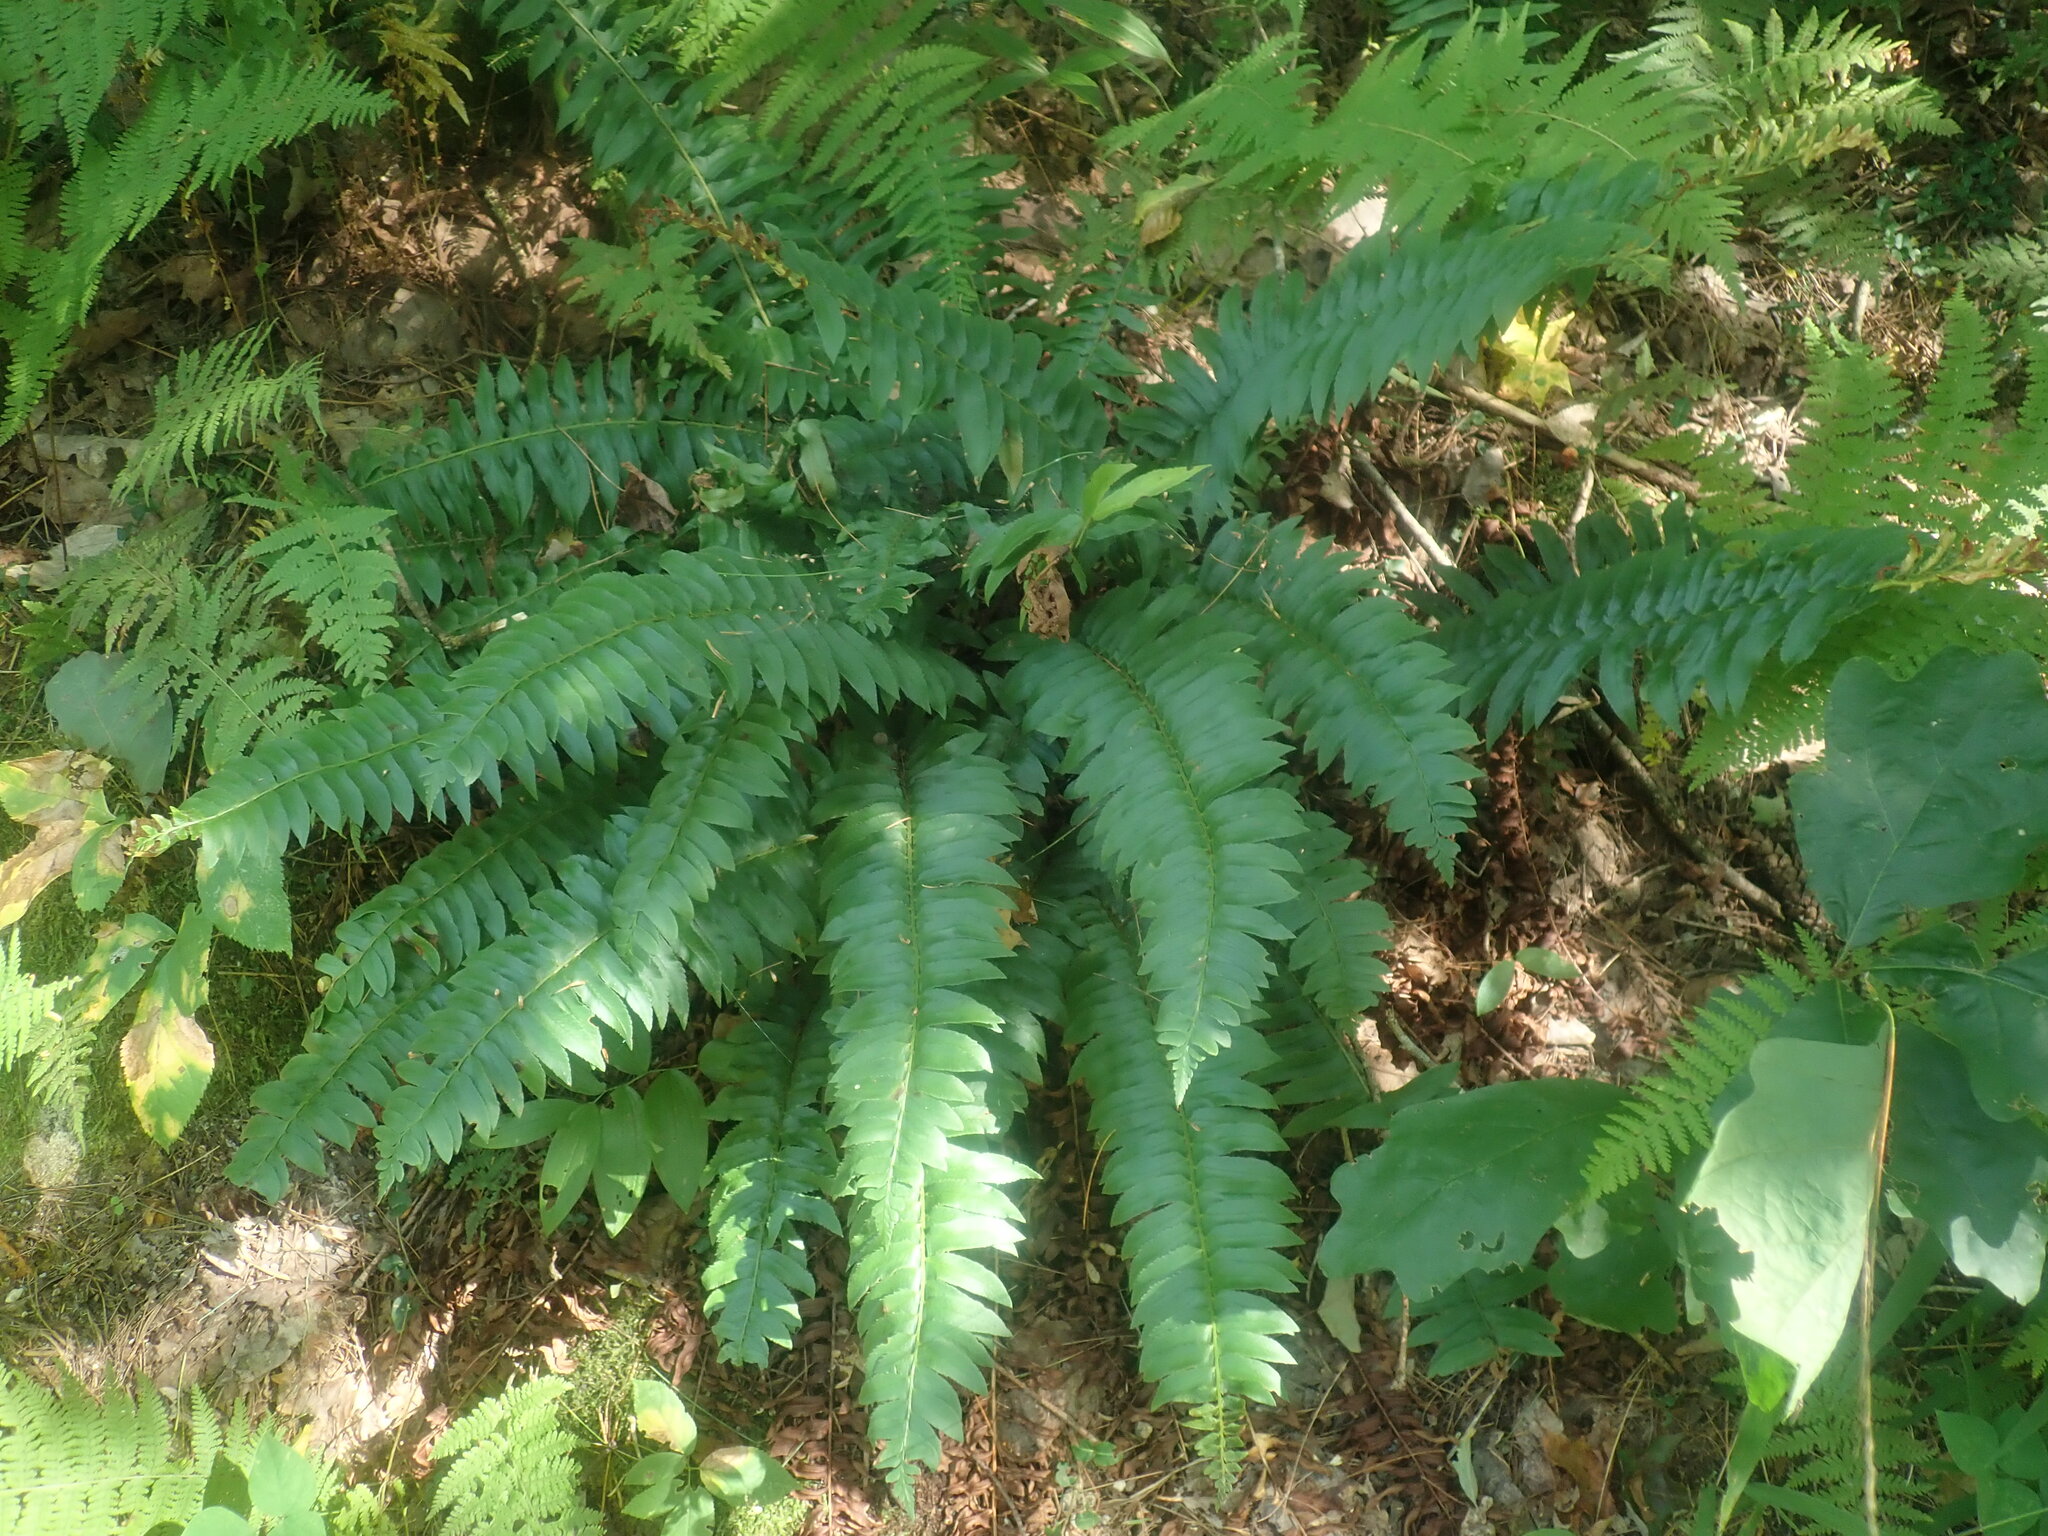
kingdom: Plantae
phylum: Tracheophyta
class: Polypodiopsida
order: Polypodiales
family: Dryopteridaceae
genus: Polystichum
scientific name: Polystichum acrostichoides
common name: Christmas fern
